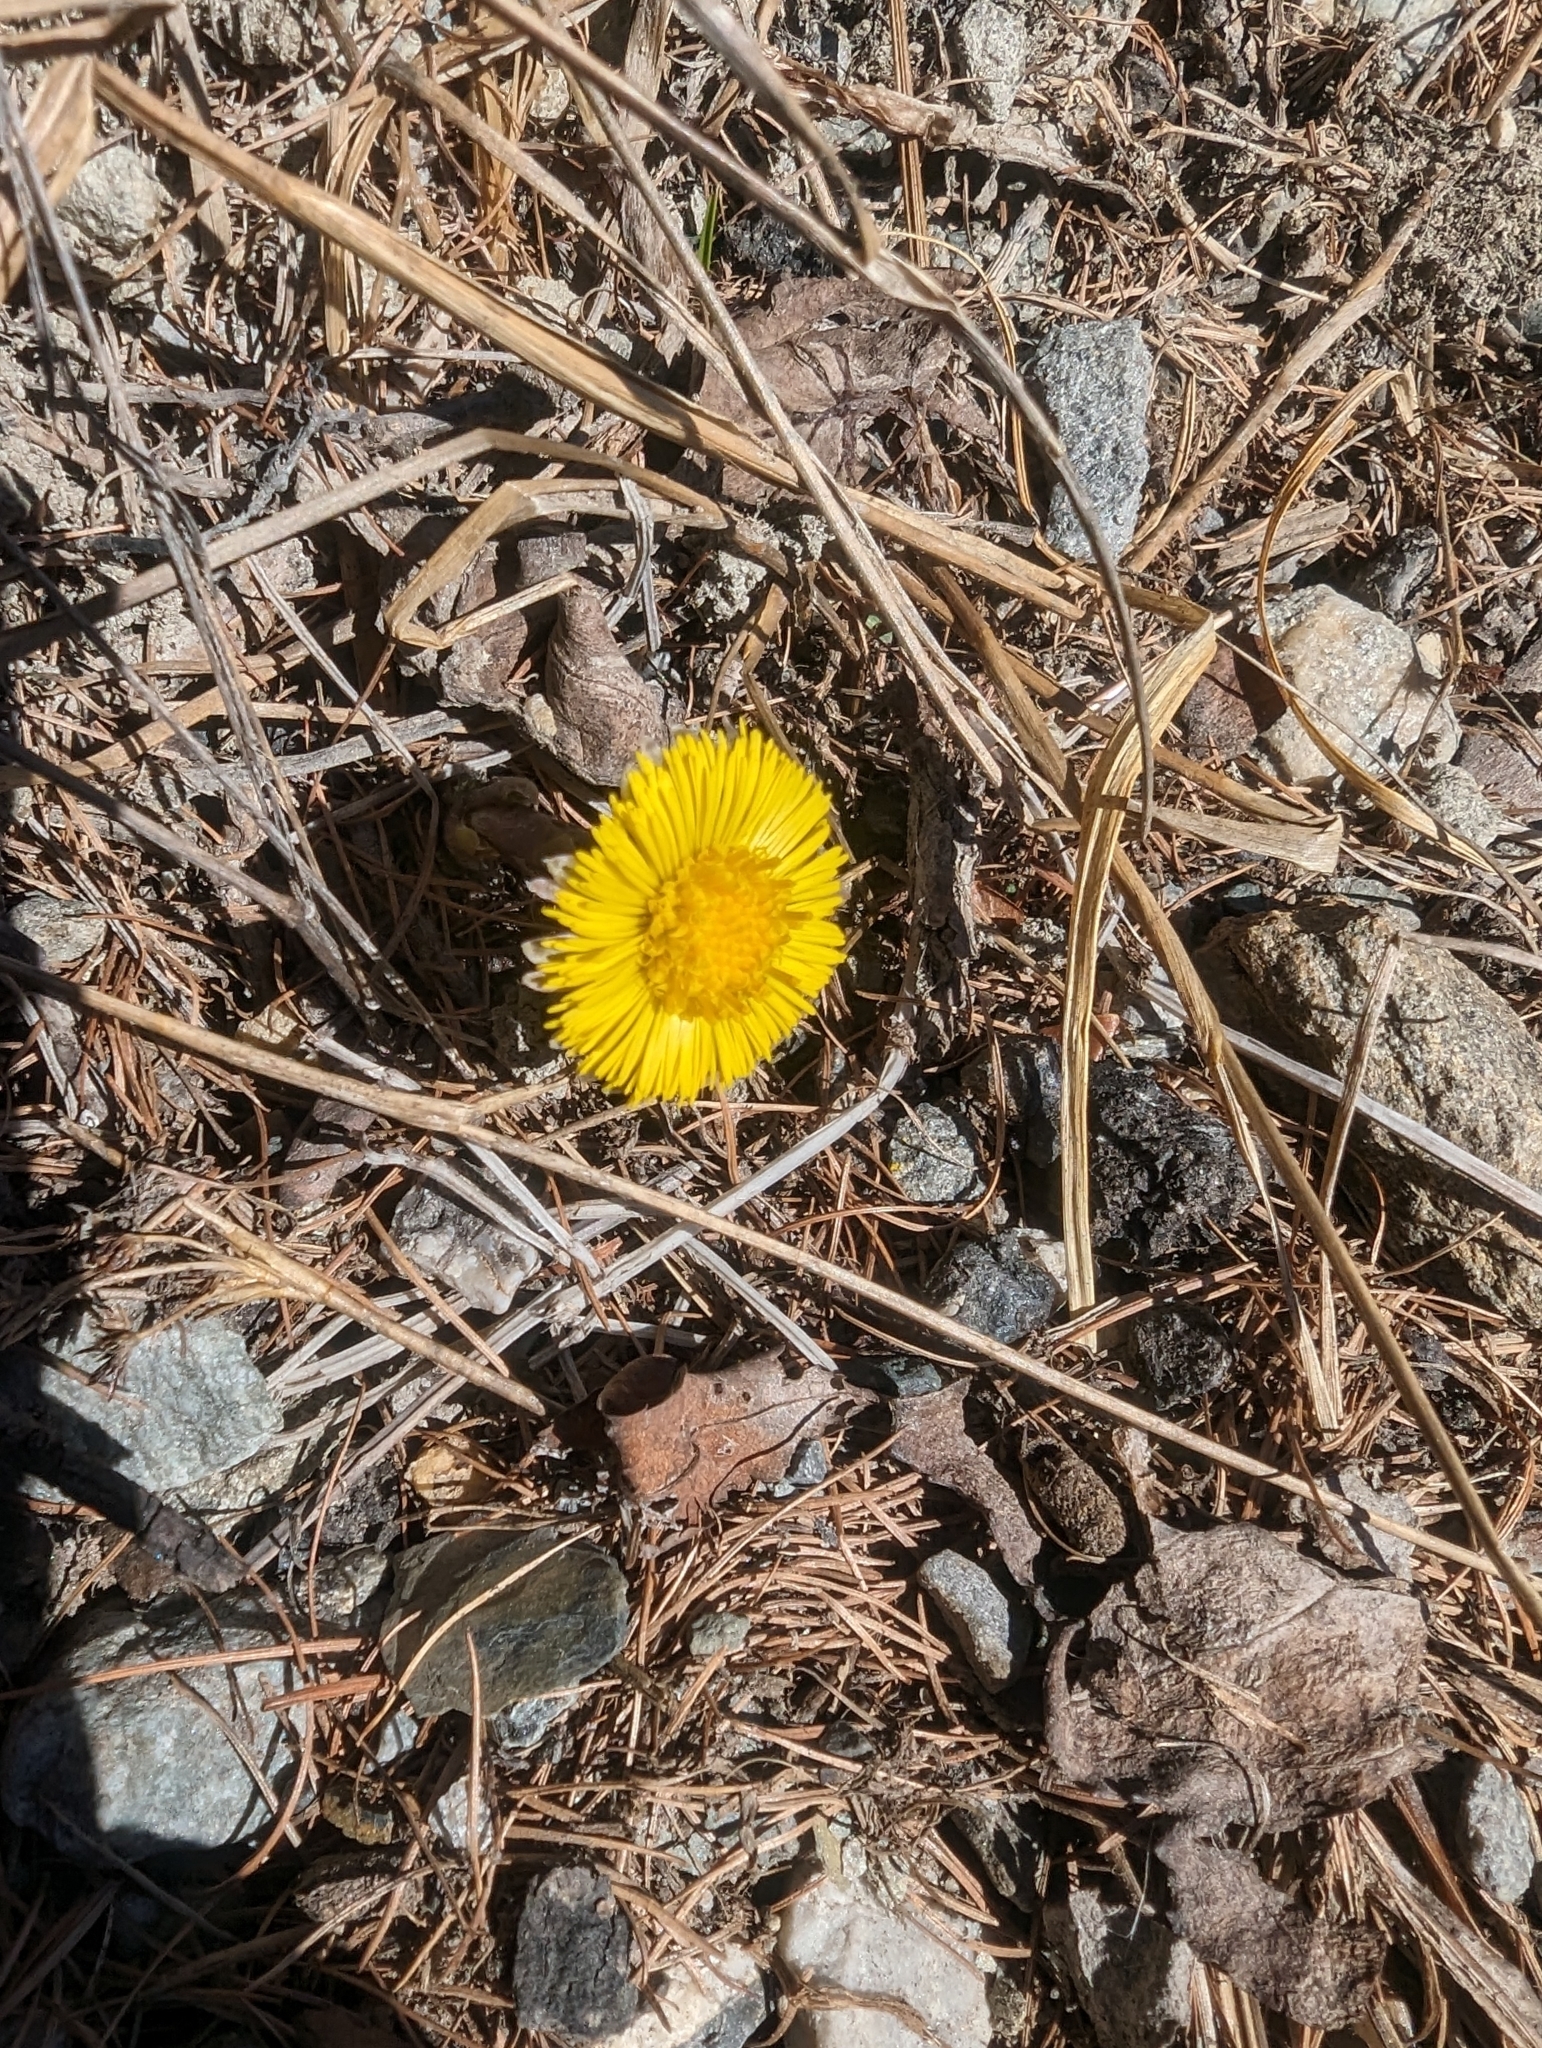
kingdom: Plantae
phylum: Tracheophyta
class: Magnoliopsida
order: Asterales
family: Asteraceae
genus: Tussilago
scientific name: Tussilago farfara
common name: Coltsfoot
